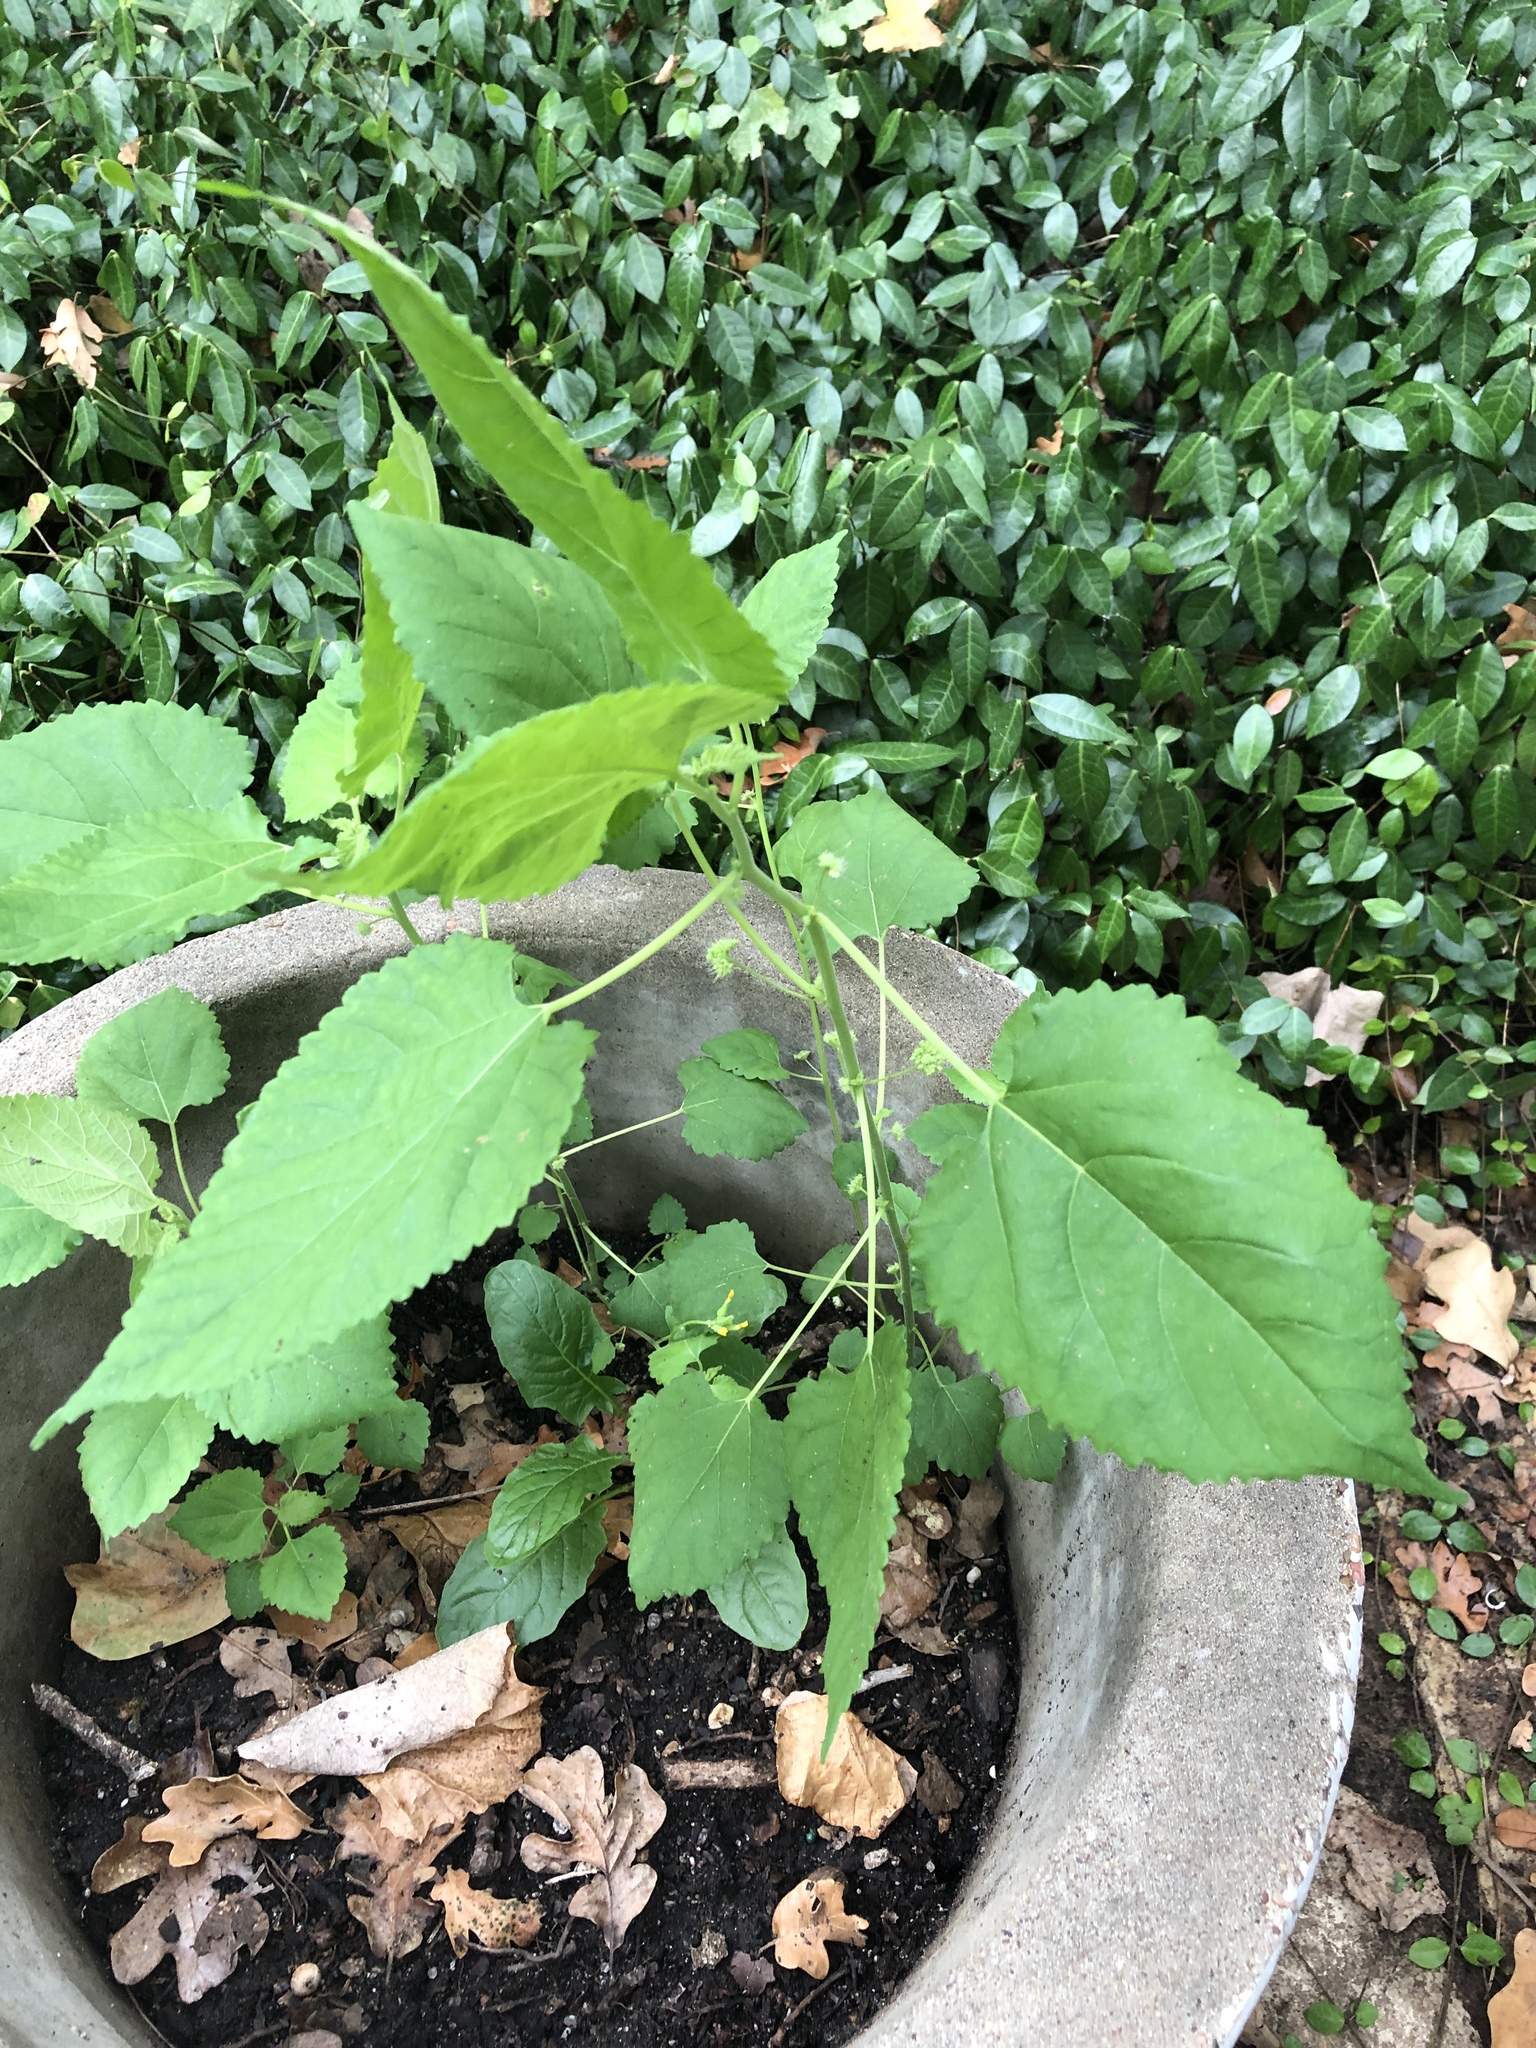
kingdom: Plantae
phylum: Tracheophyta
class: Magnoliopsida
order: Rosales
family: Moraceae
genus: Fatoua
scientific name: Fatoua villosa
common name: Hairy crabweed
